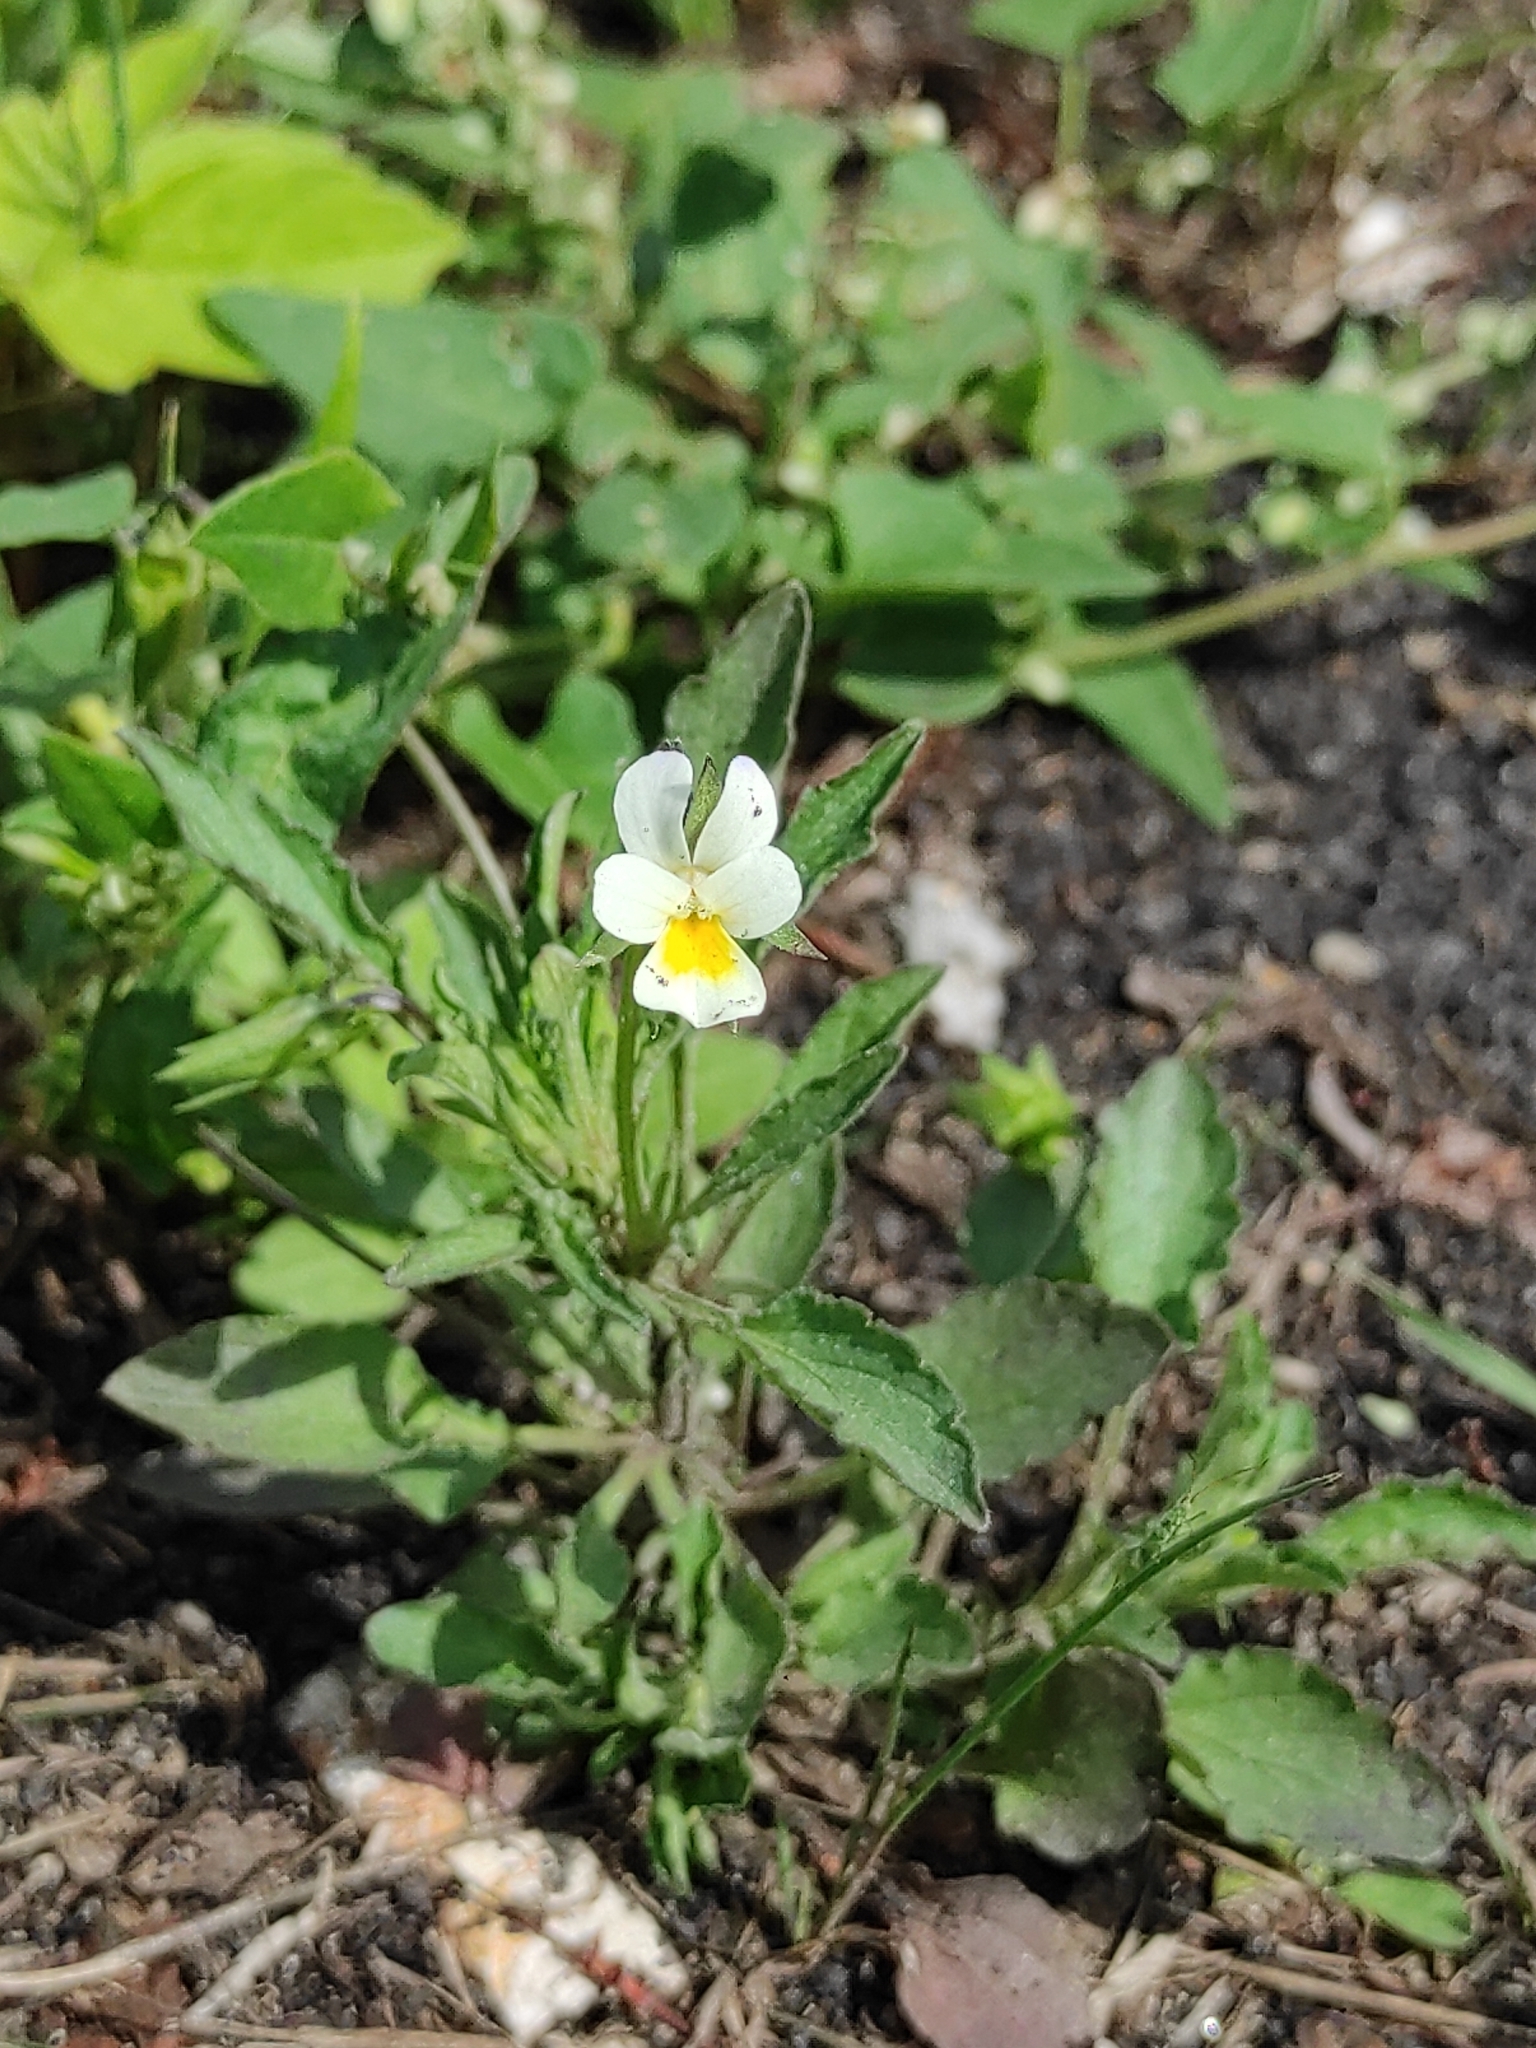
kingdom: Plantae
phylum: Tracheophyta
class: Magnoliopsida
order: Malpighiales
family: Violaceae
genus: Viola
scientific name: Viola arvensis
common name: Field pansy
